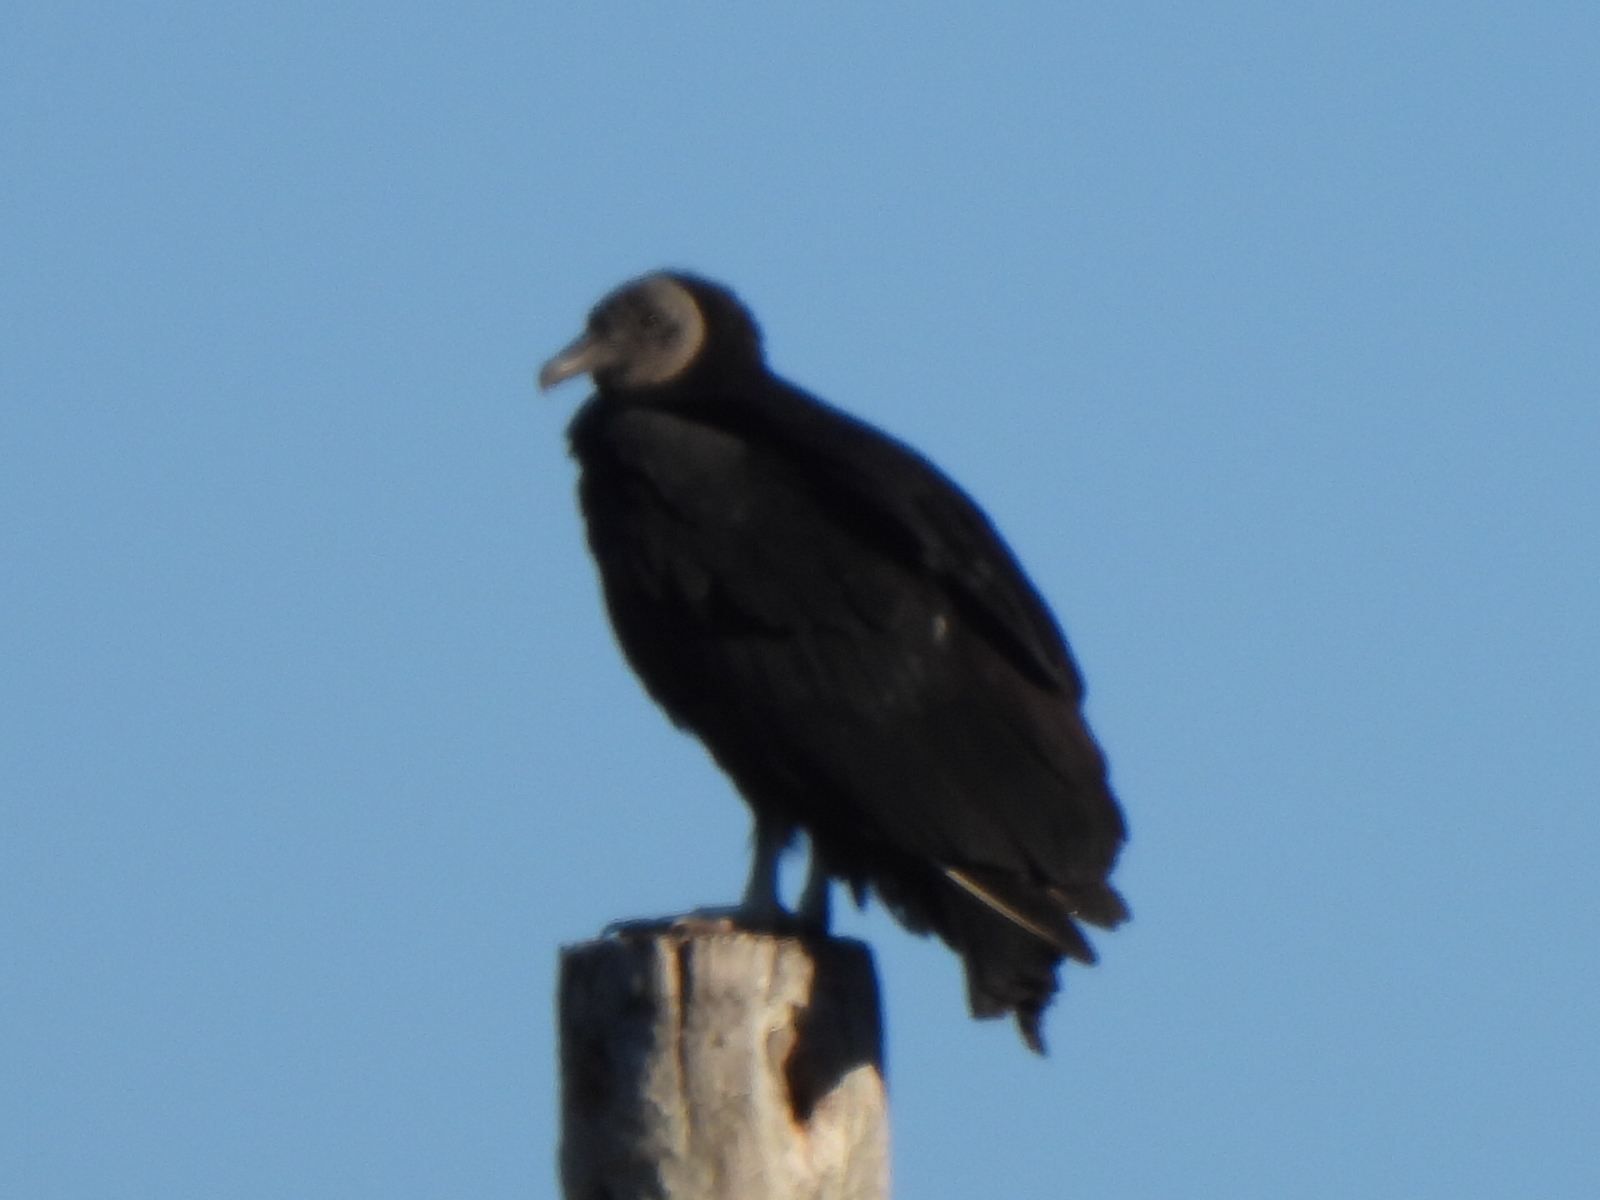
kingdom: Animalia
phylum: Chordata
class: Aves
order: Accipitriformes
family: Cathartidae
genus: Coragyps
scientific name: Coragyps atratus
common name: Black vulture
